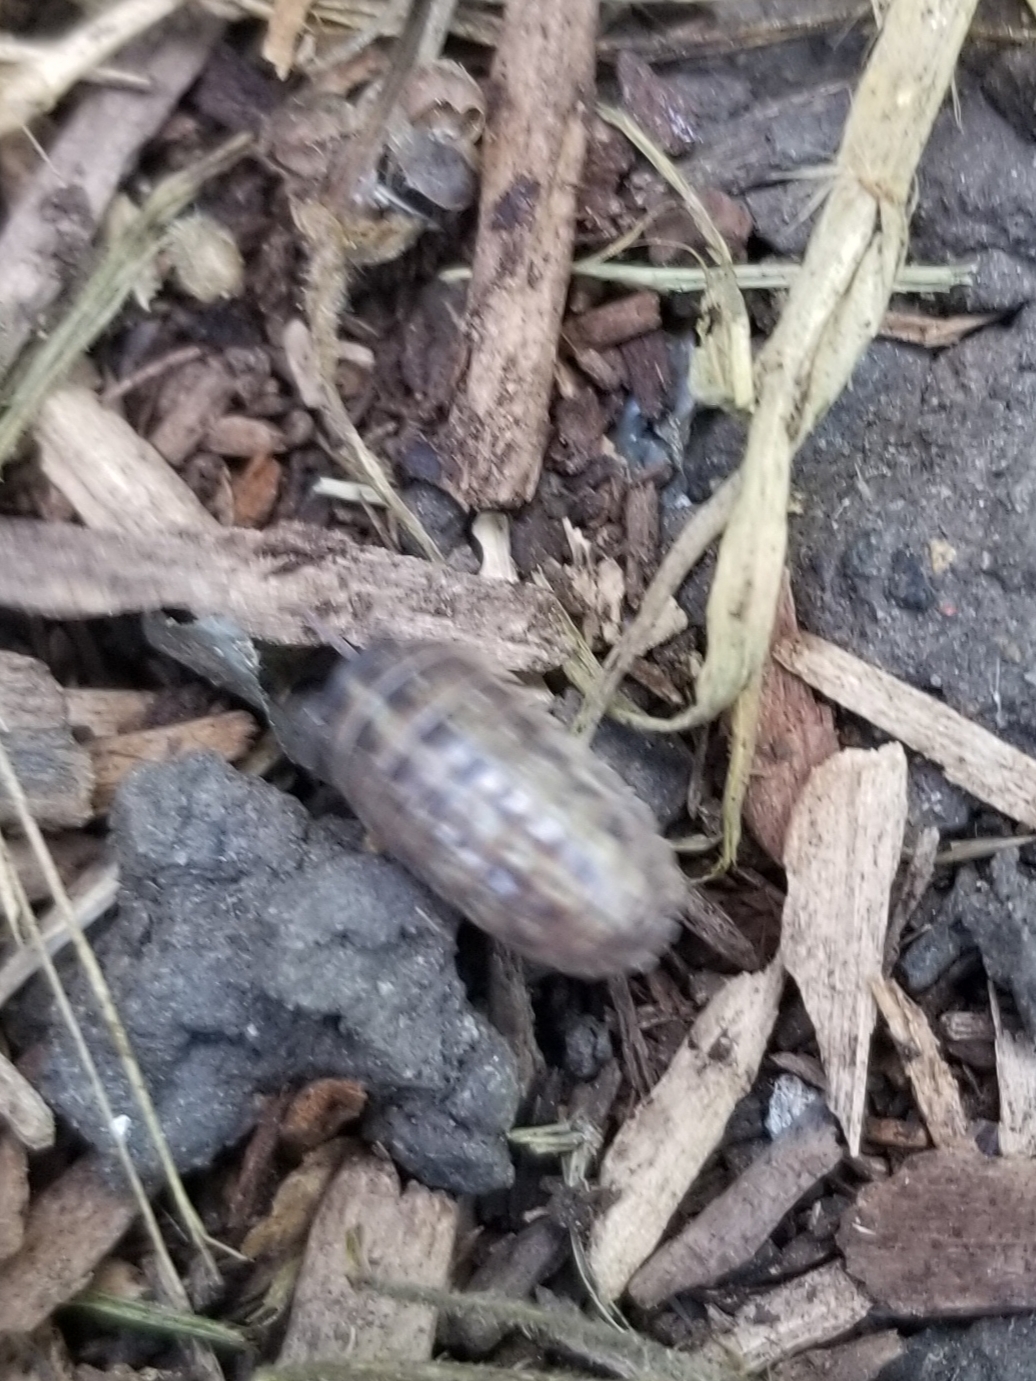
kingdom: Animalia
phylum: Arthropoda
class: Malacostraca
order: Isopoda
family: Armadillidiidae
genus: Armadillidium
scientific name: Armadillidium vulgare
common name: Common pill woodlouse
